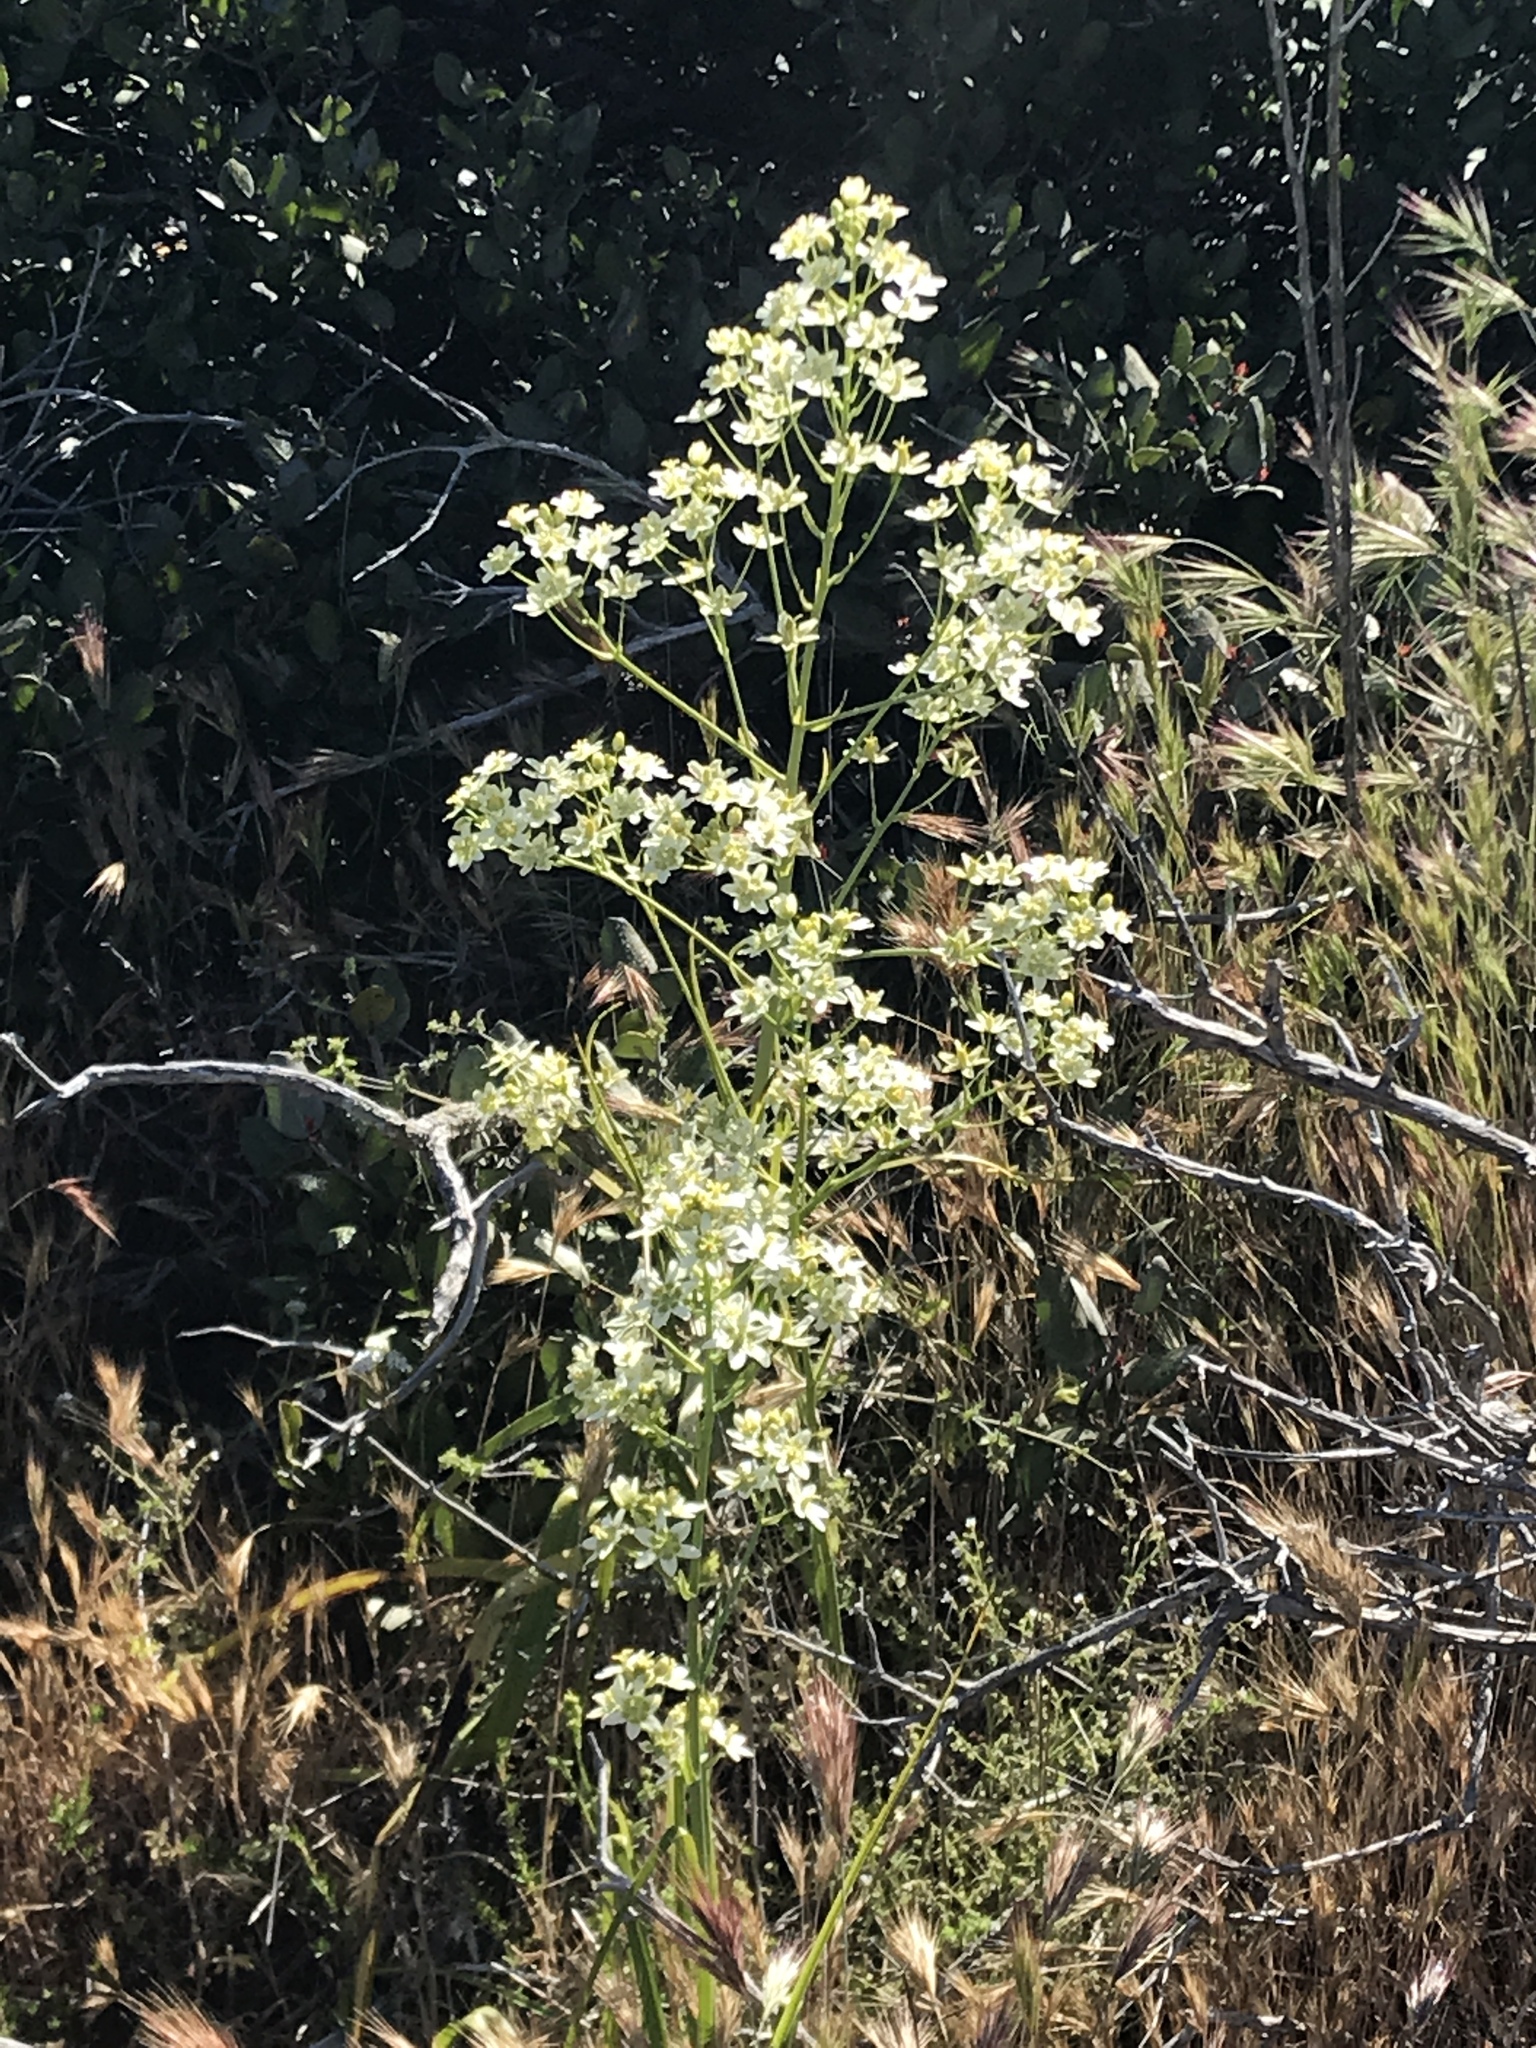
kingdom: Plantae
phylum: Tracheophyta
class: Liliopsida
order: Liliales
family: Melanthiaceae
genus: Toxicoscordion
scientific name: Toxicoscordion fremontii
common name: Fremont's death camas
